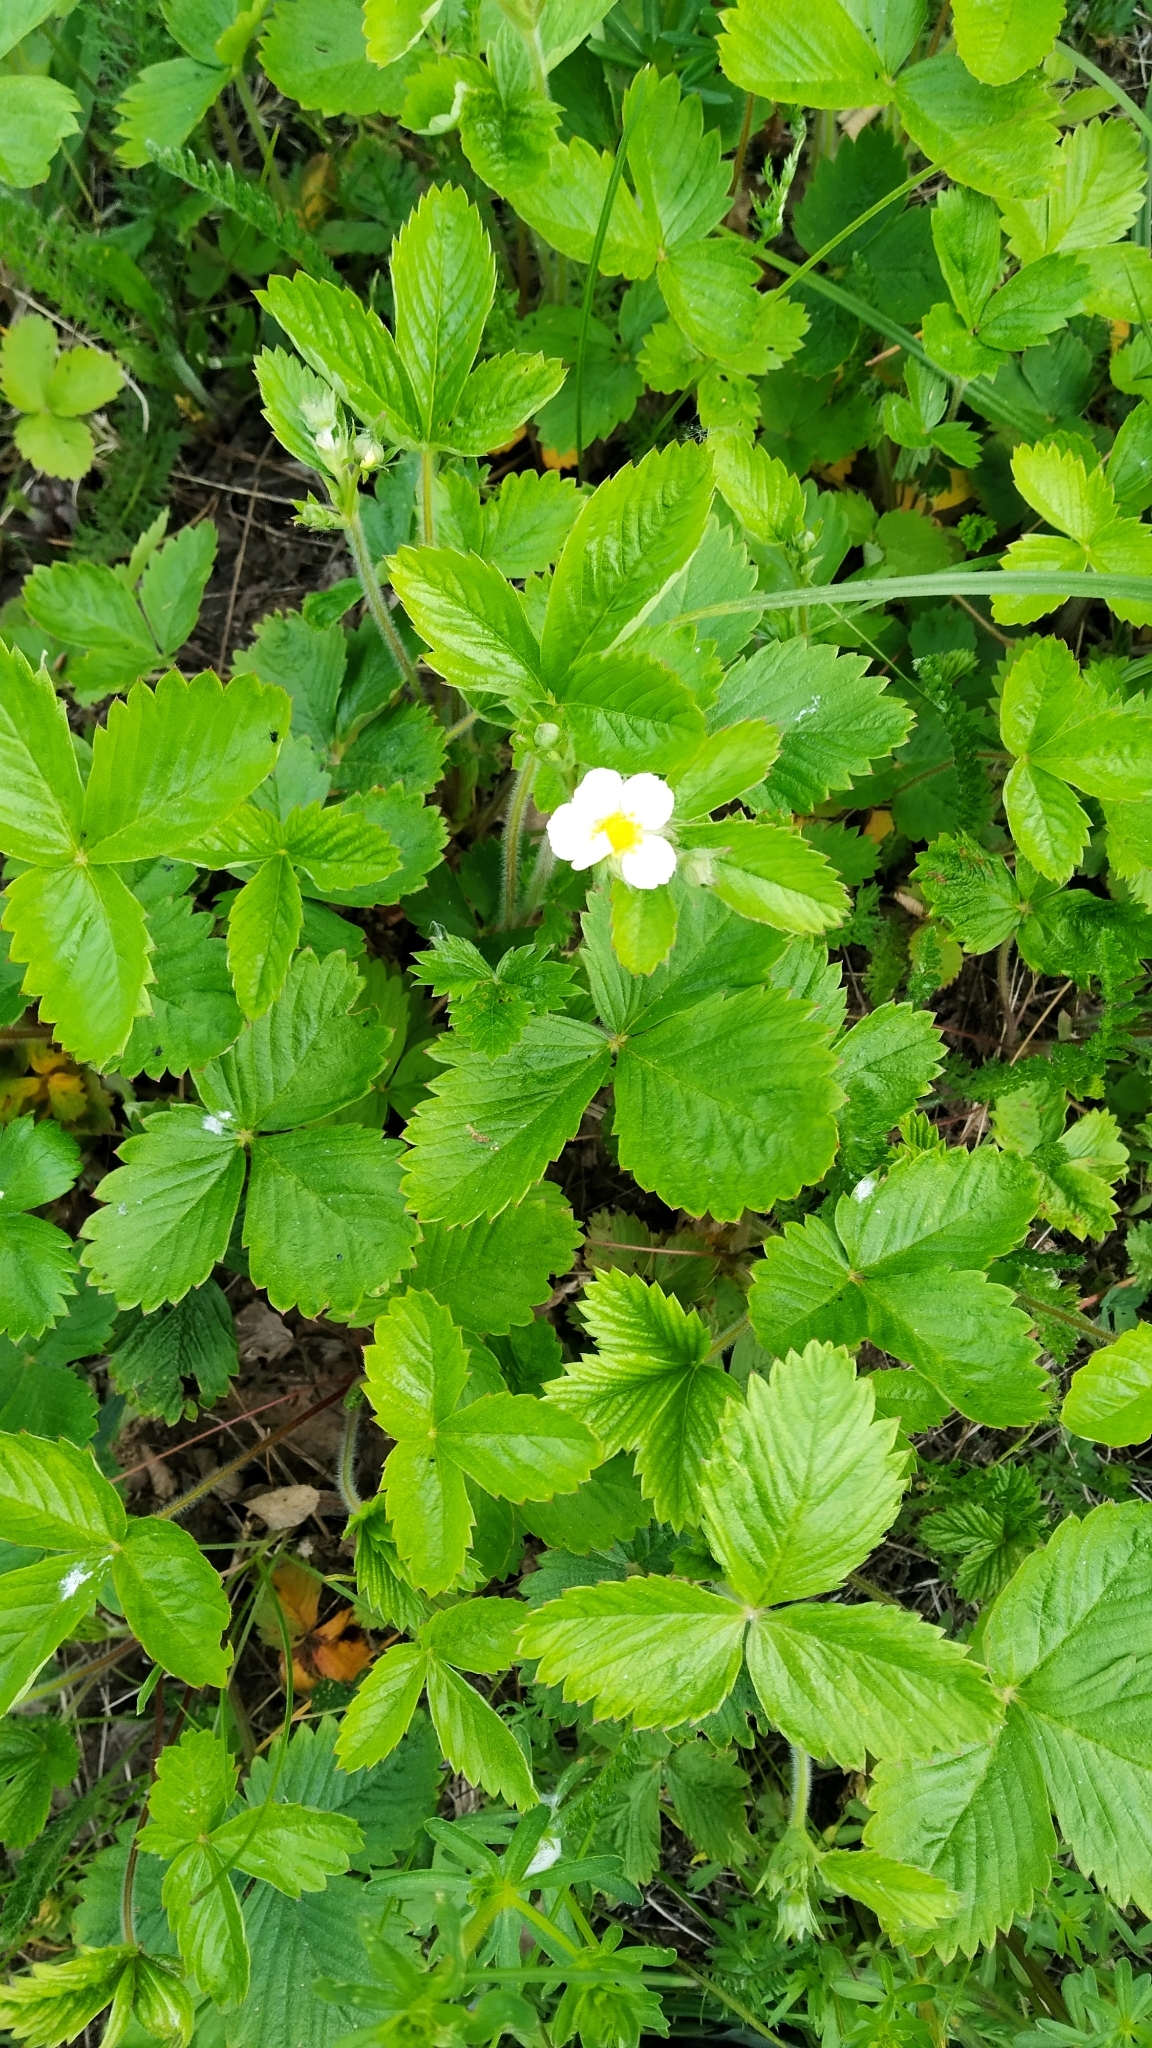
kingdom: Plantae
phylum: Tracheophyta
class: Magnoliopsida
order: Rosales
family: Rosaceae
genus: Fragaria
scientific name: Fragaria vesca
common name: Wild strawberry
